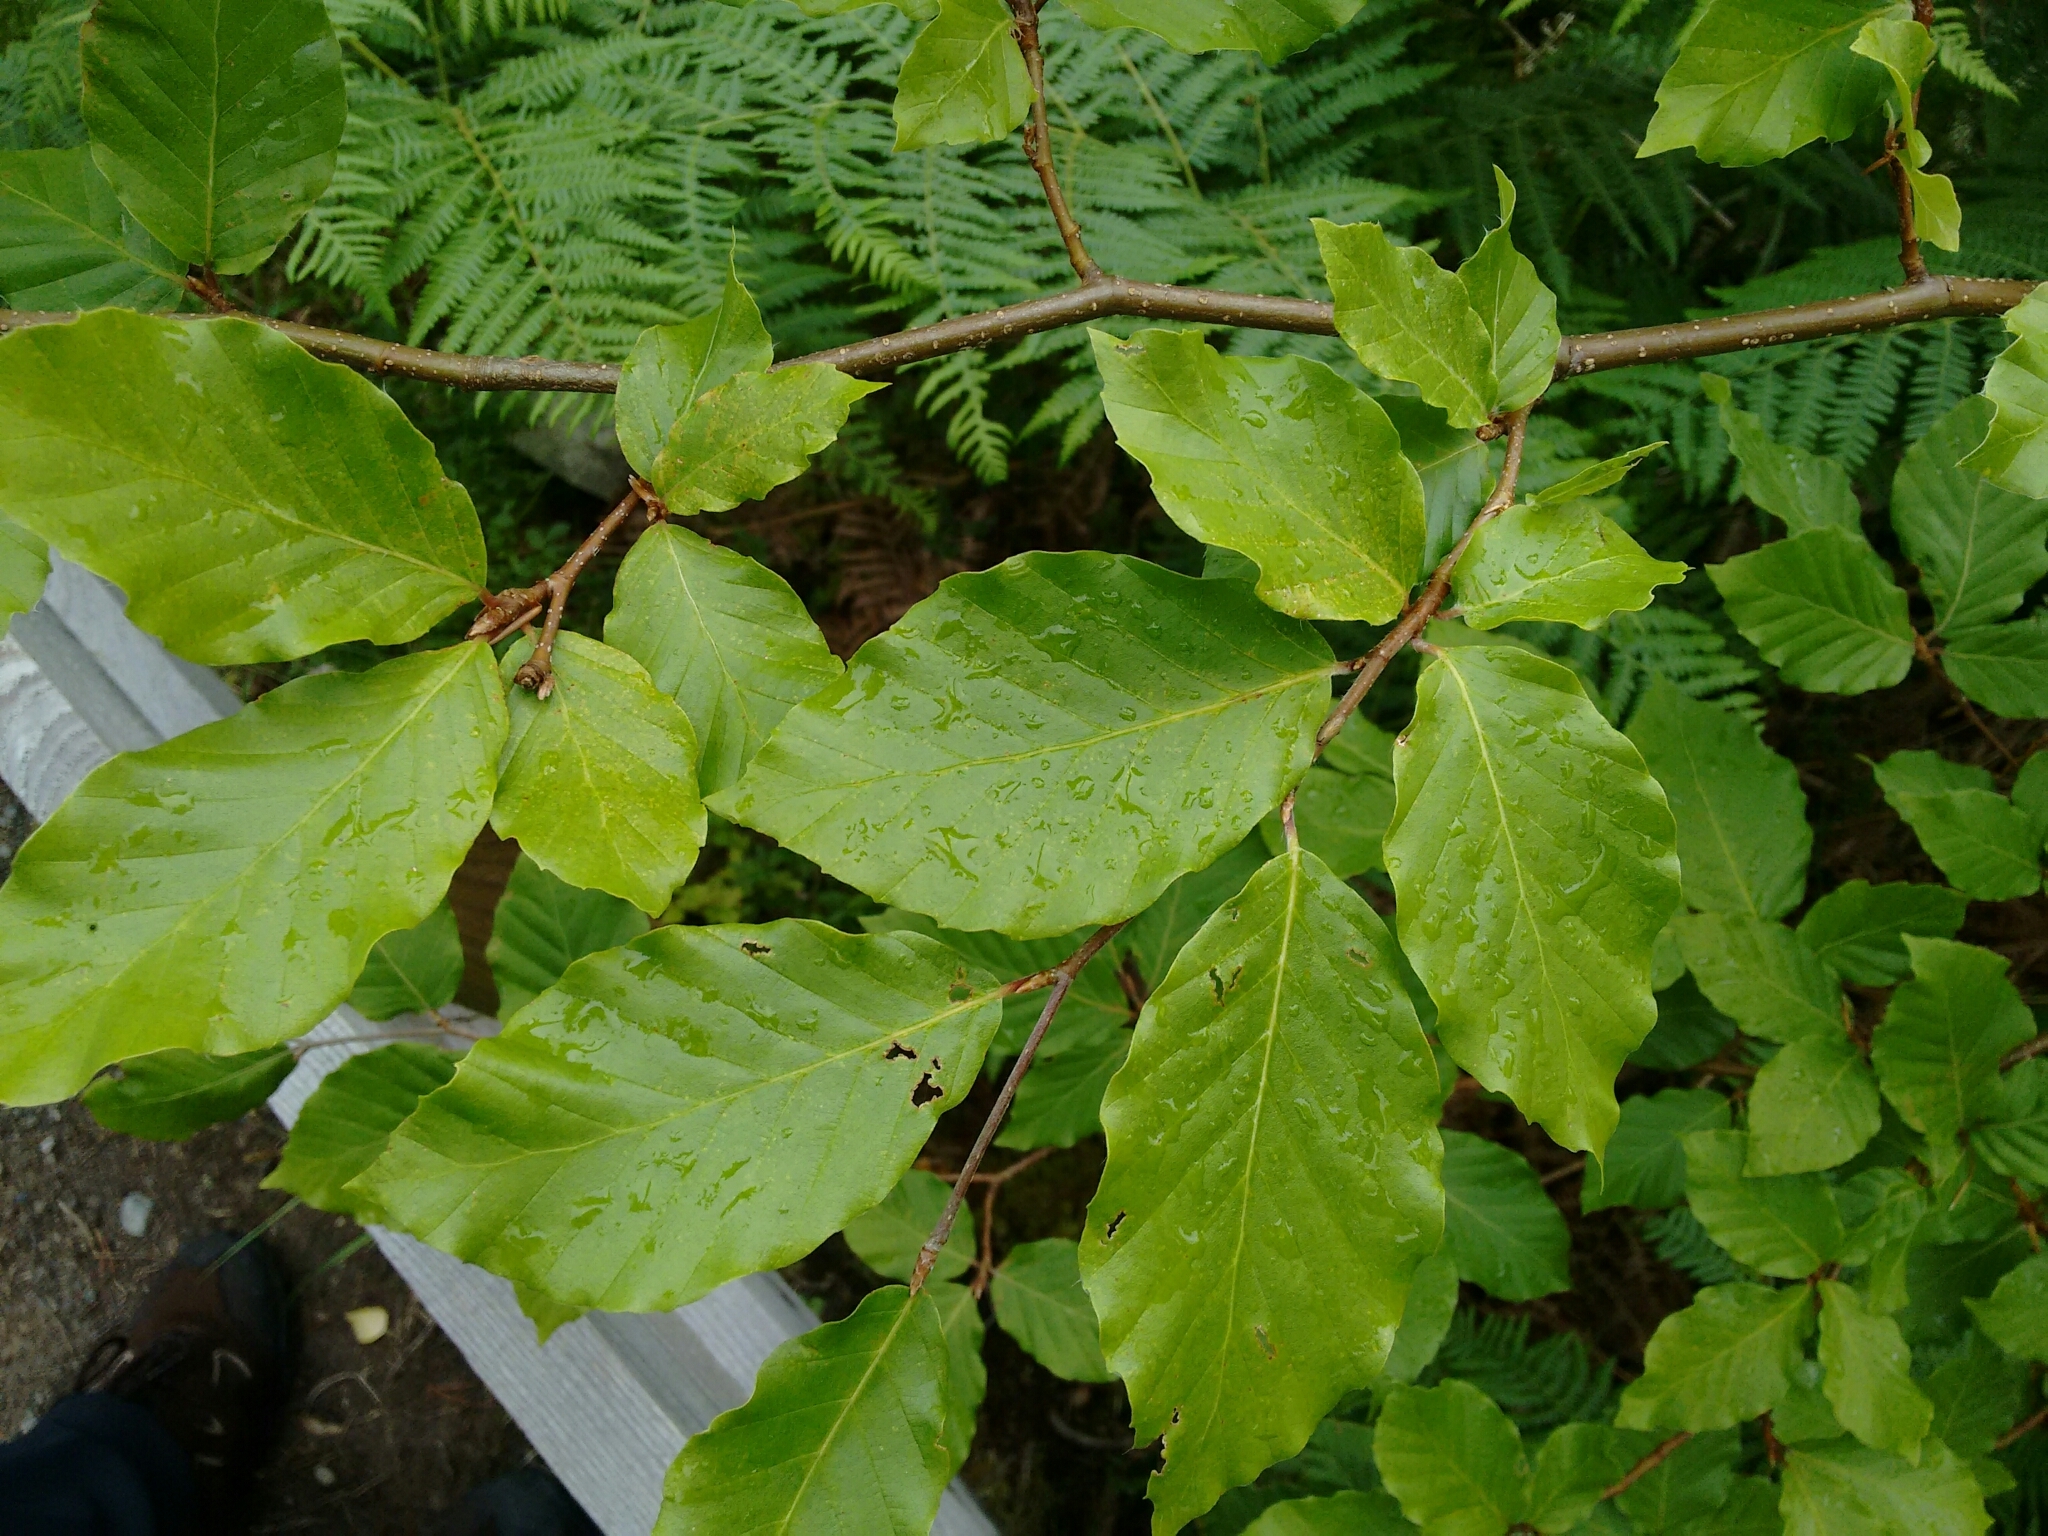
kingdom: Plantae
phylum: Tracheophyta
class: Magnoliopsida
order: Fagales
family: Fagaceae
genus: Fagus
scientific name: Fagus sylvatica
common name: Beech
